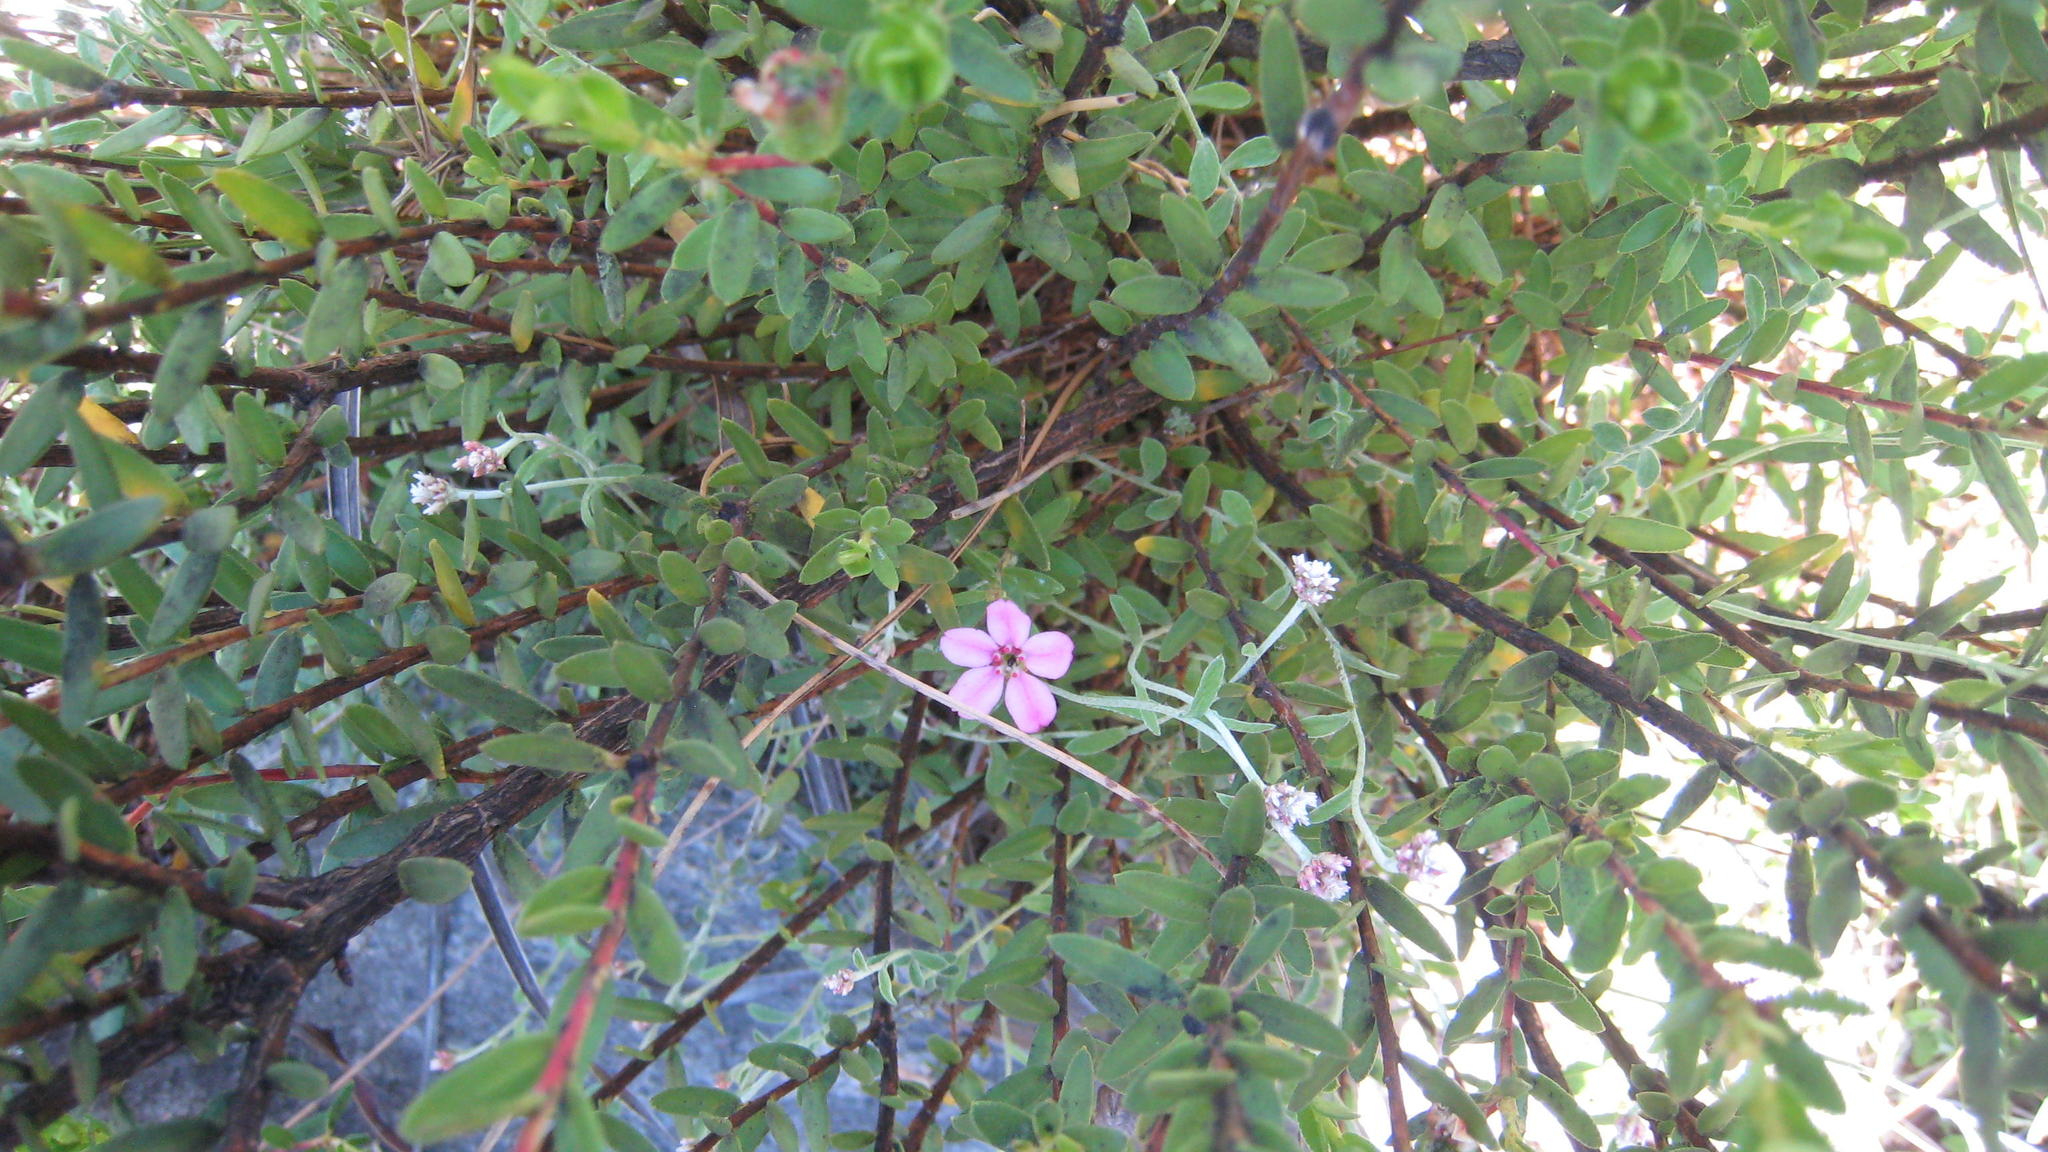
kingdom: Plantae
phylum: Tracheophyta
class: Magnoliopsida
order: Sapindales
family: Rutaceae
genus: Adenandra
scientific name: Adenandra mundiifolia
